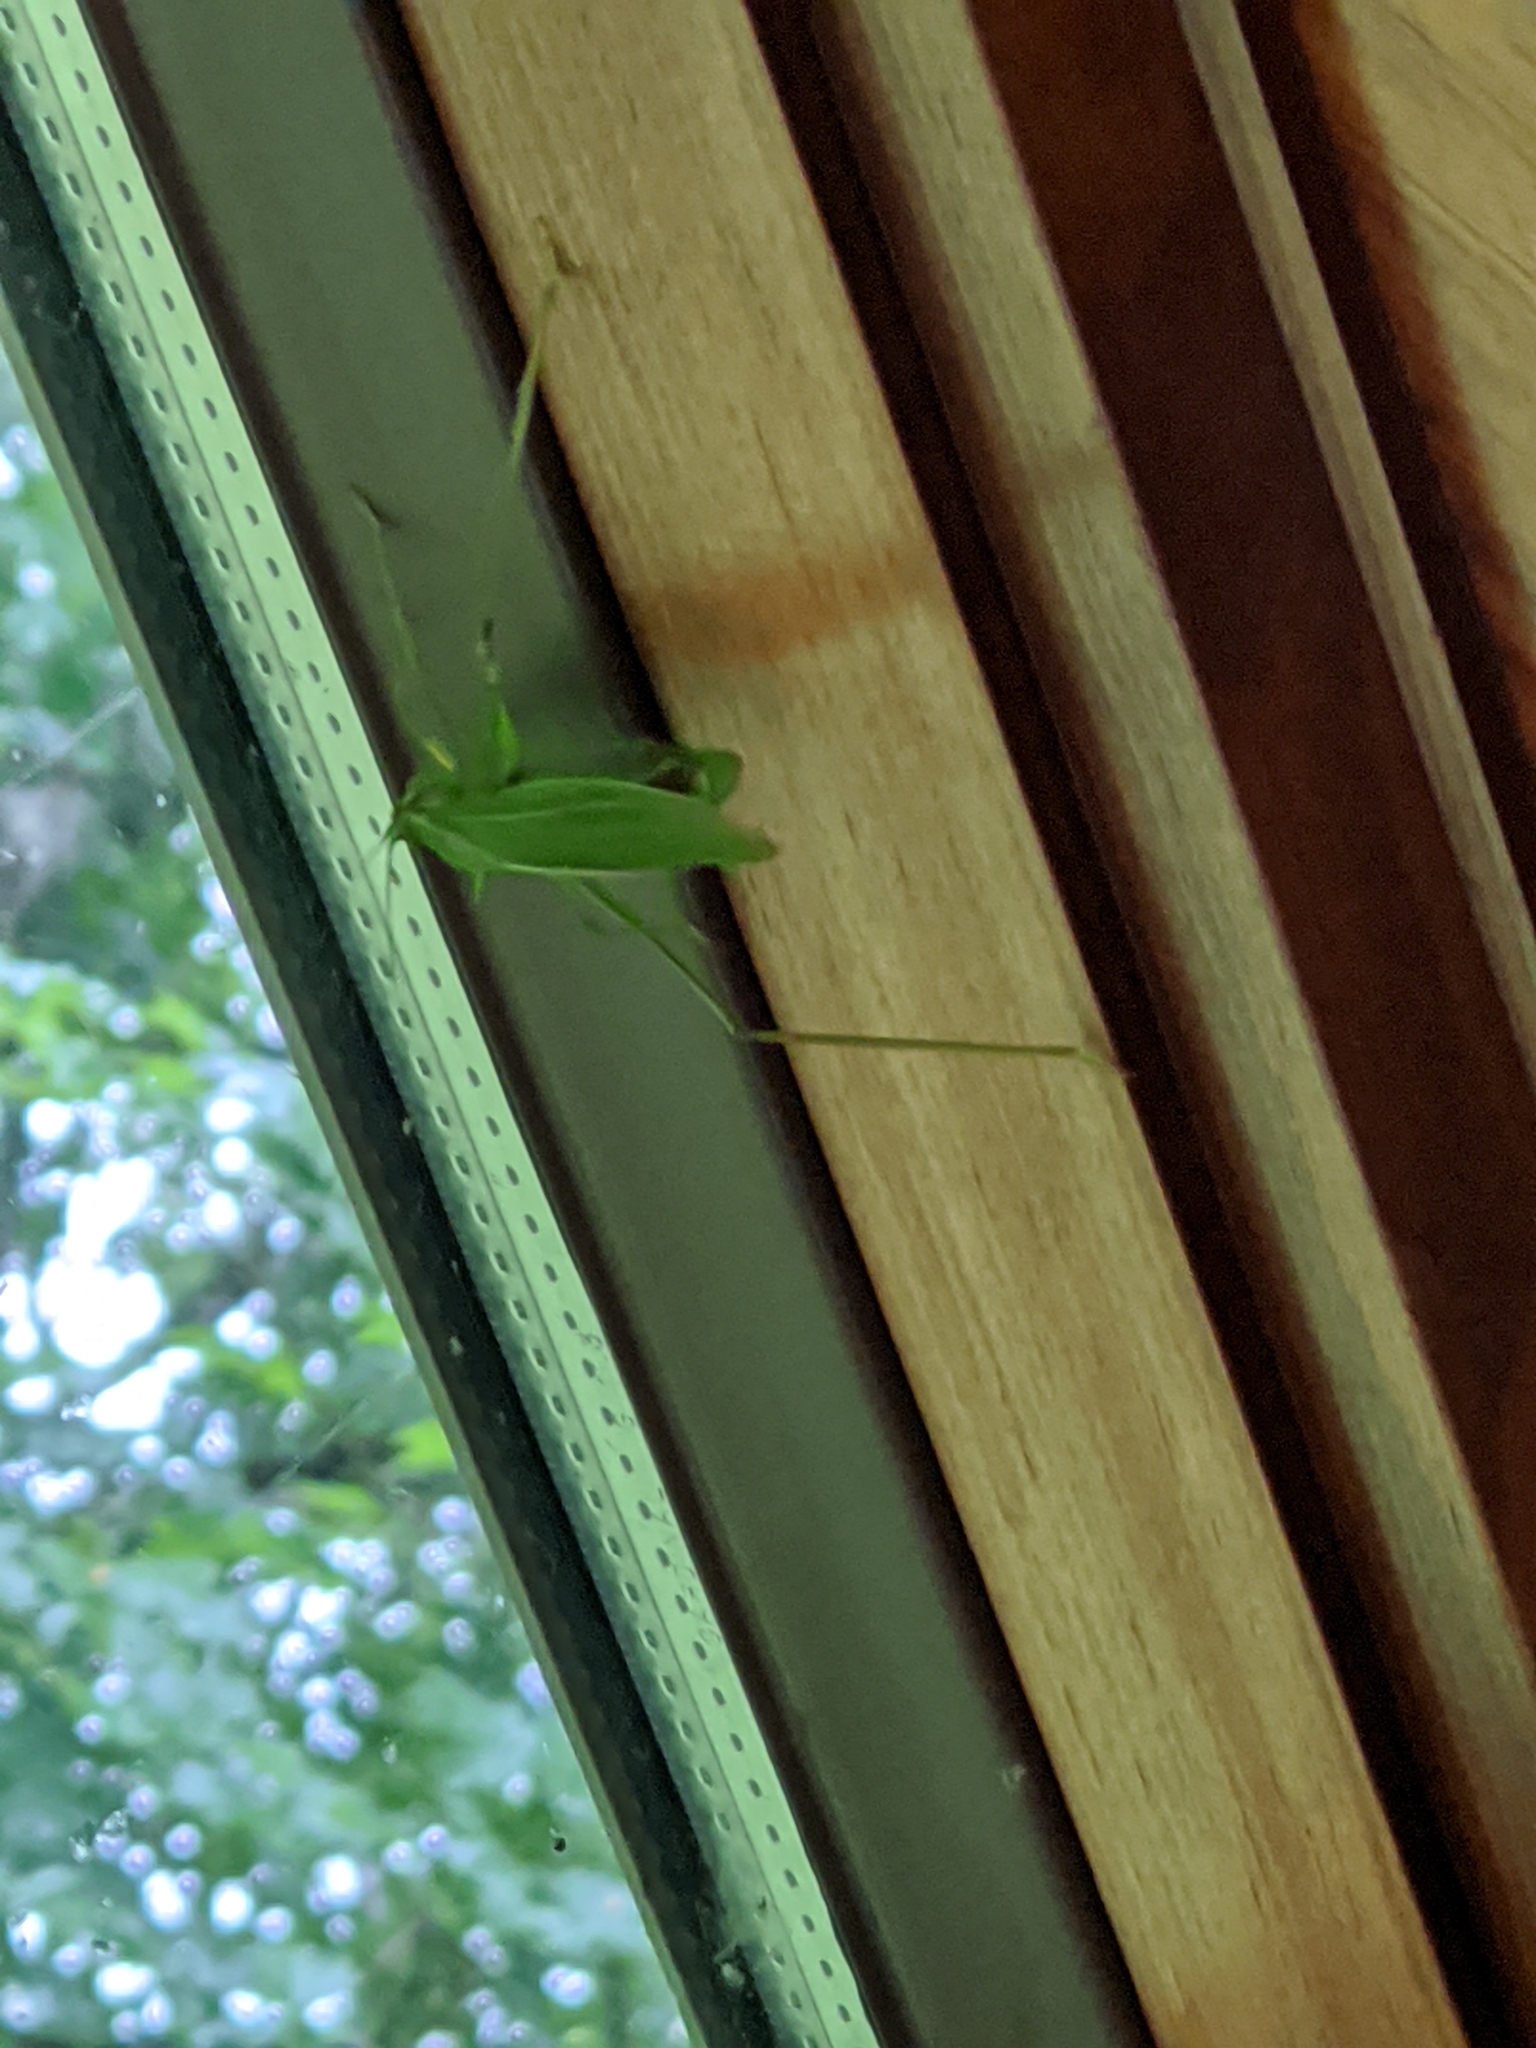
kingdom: Animalia
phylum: Arthropoda
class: Insecta
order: Orthoptera
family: Tettigoniidae
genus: Scudderia
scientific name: Scudderia septentrionalis
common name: Northern bush-katydid
